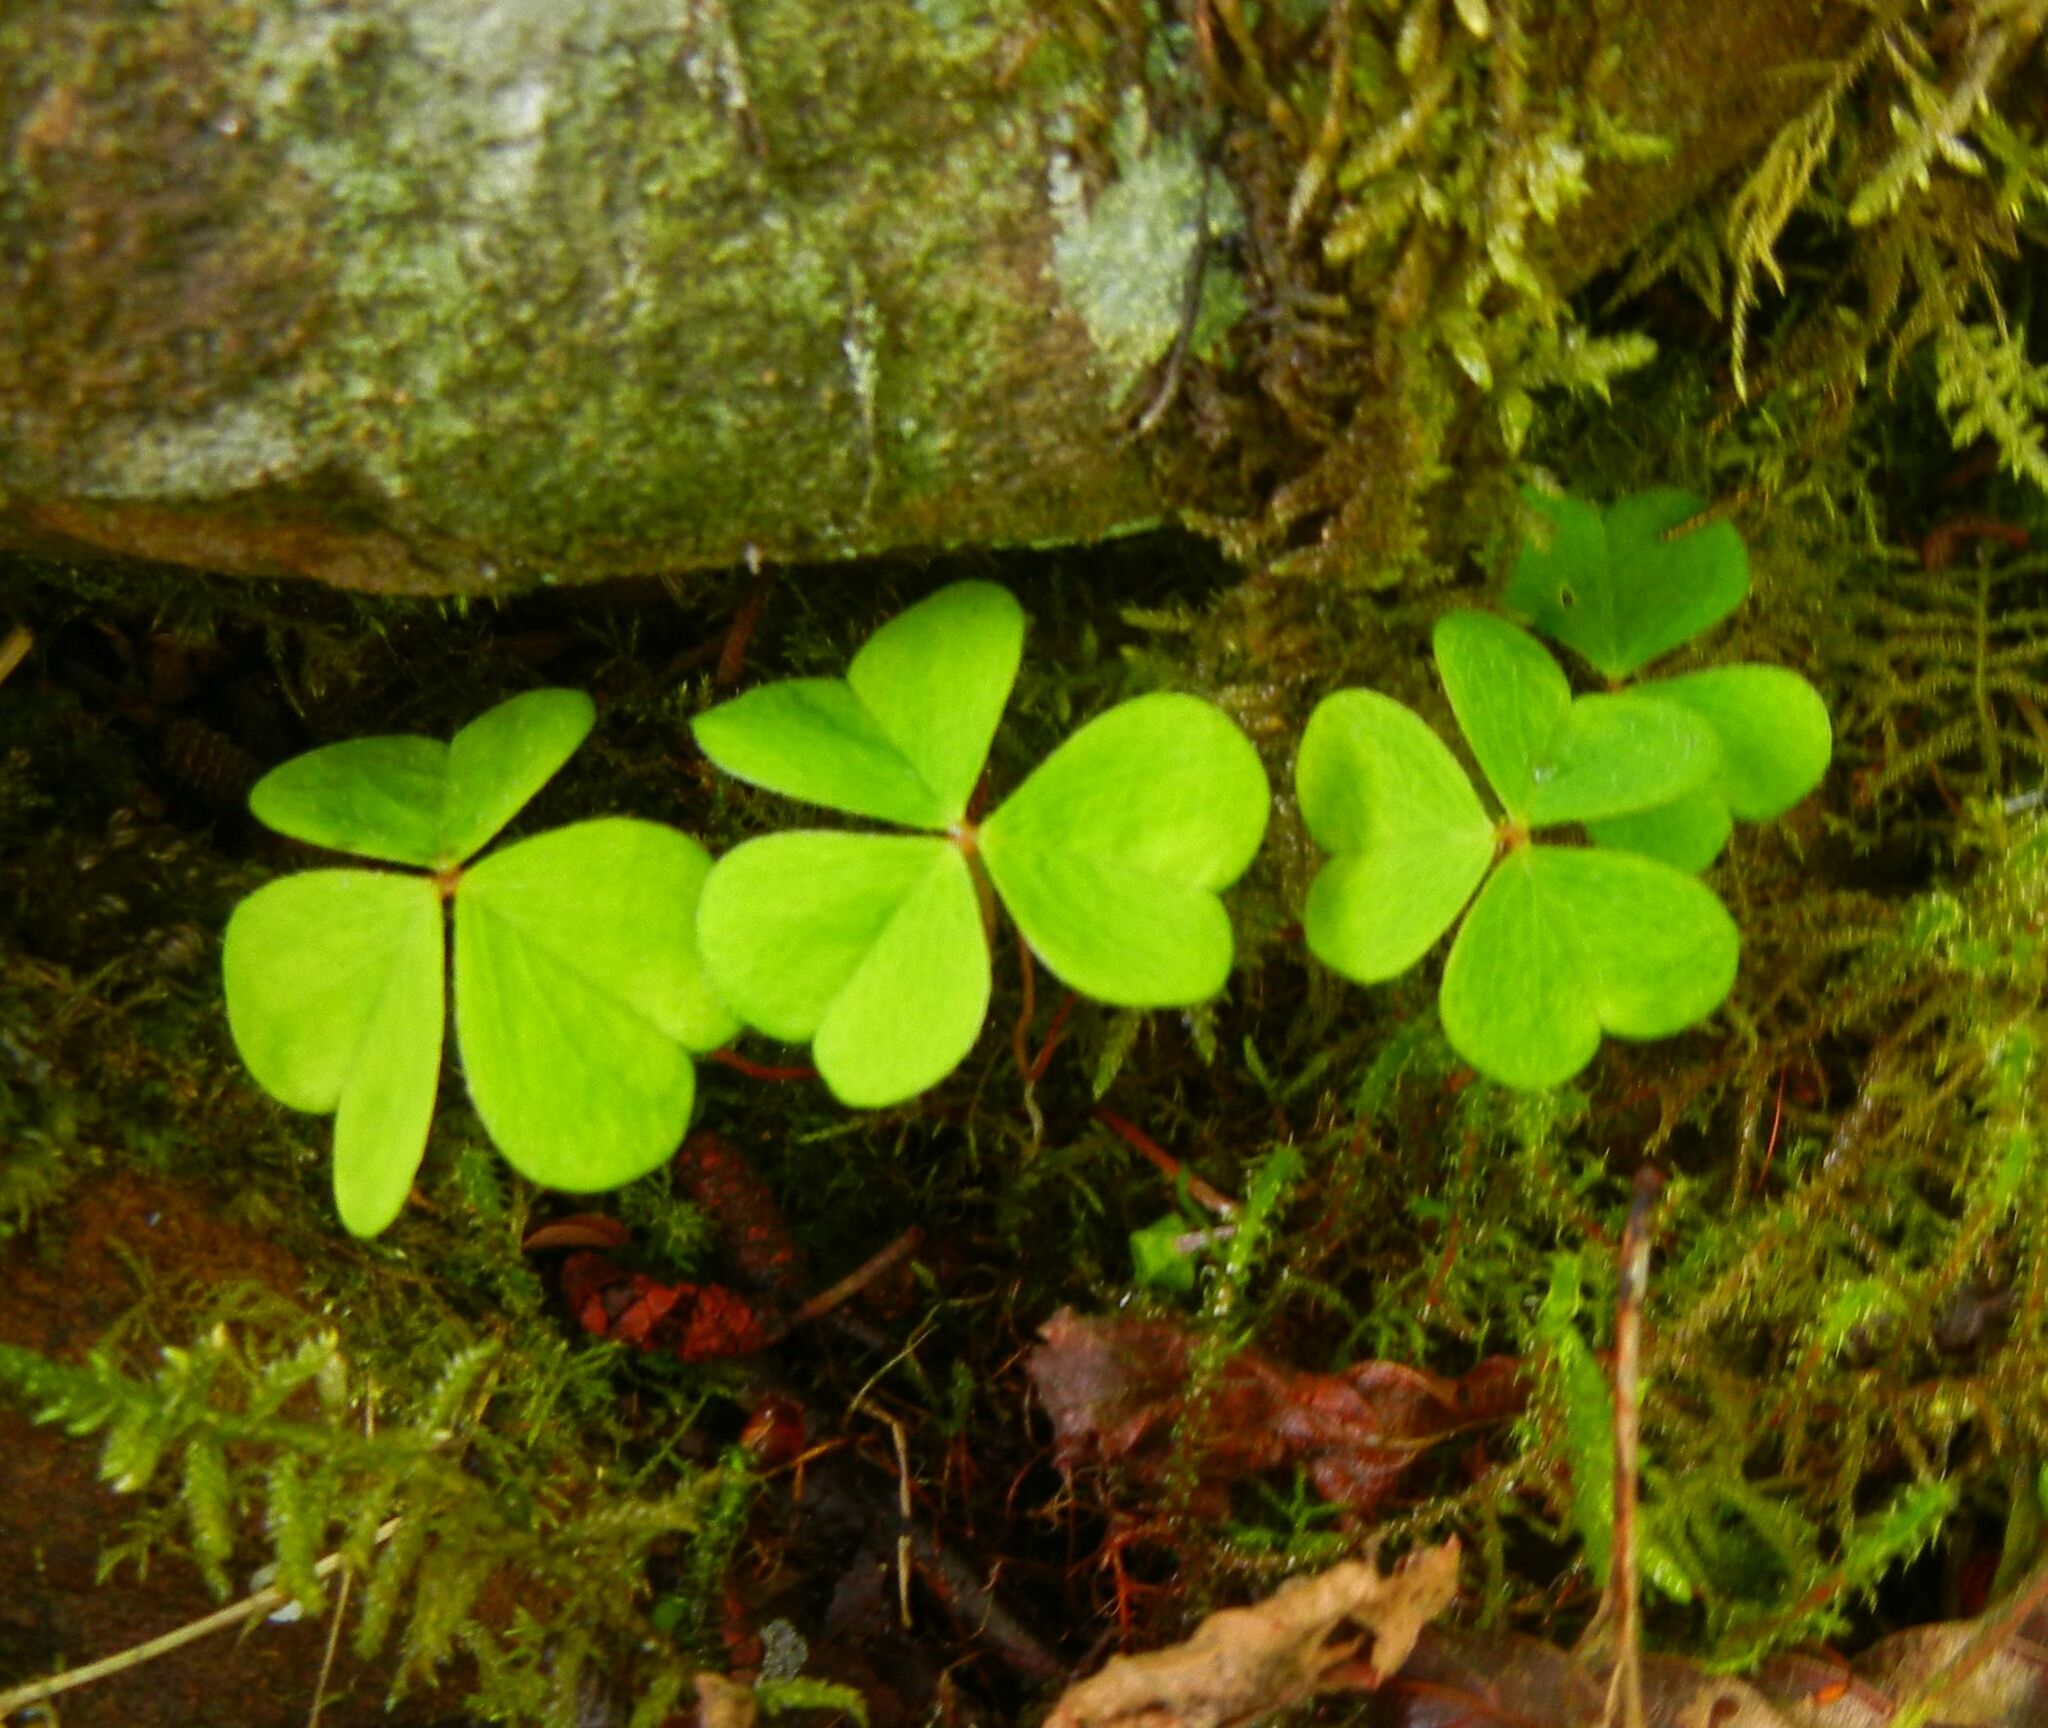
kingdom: Plantae
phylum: Tracheophyta
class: Magnoliopsida
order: Oxalidales
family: Oxalidaceae
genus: Oxalis
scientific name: Oxalis acetosella
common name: Wood-sorrel
